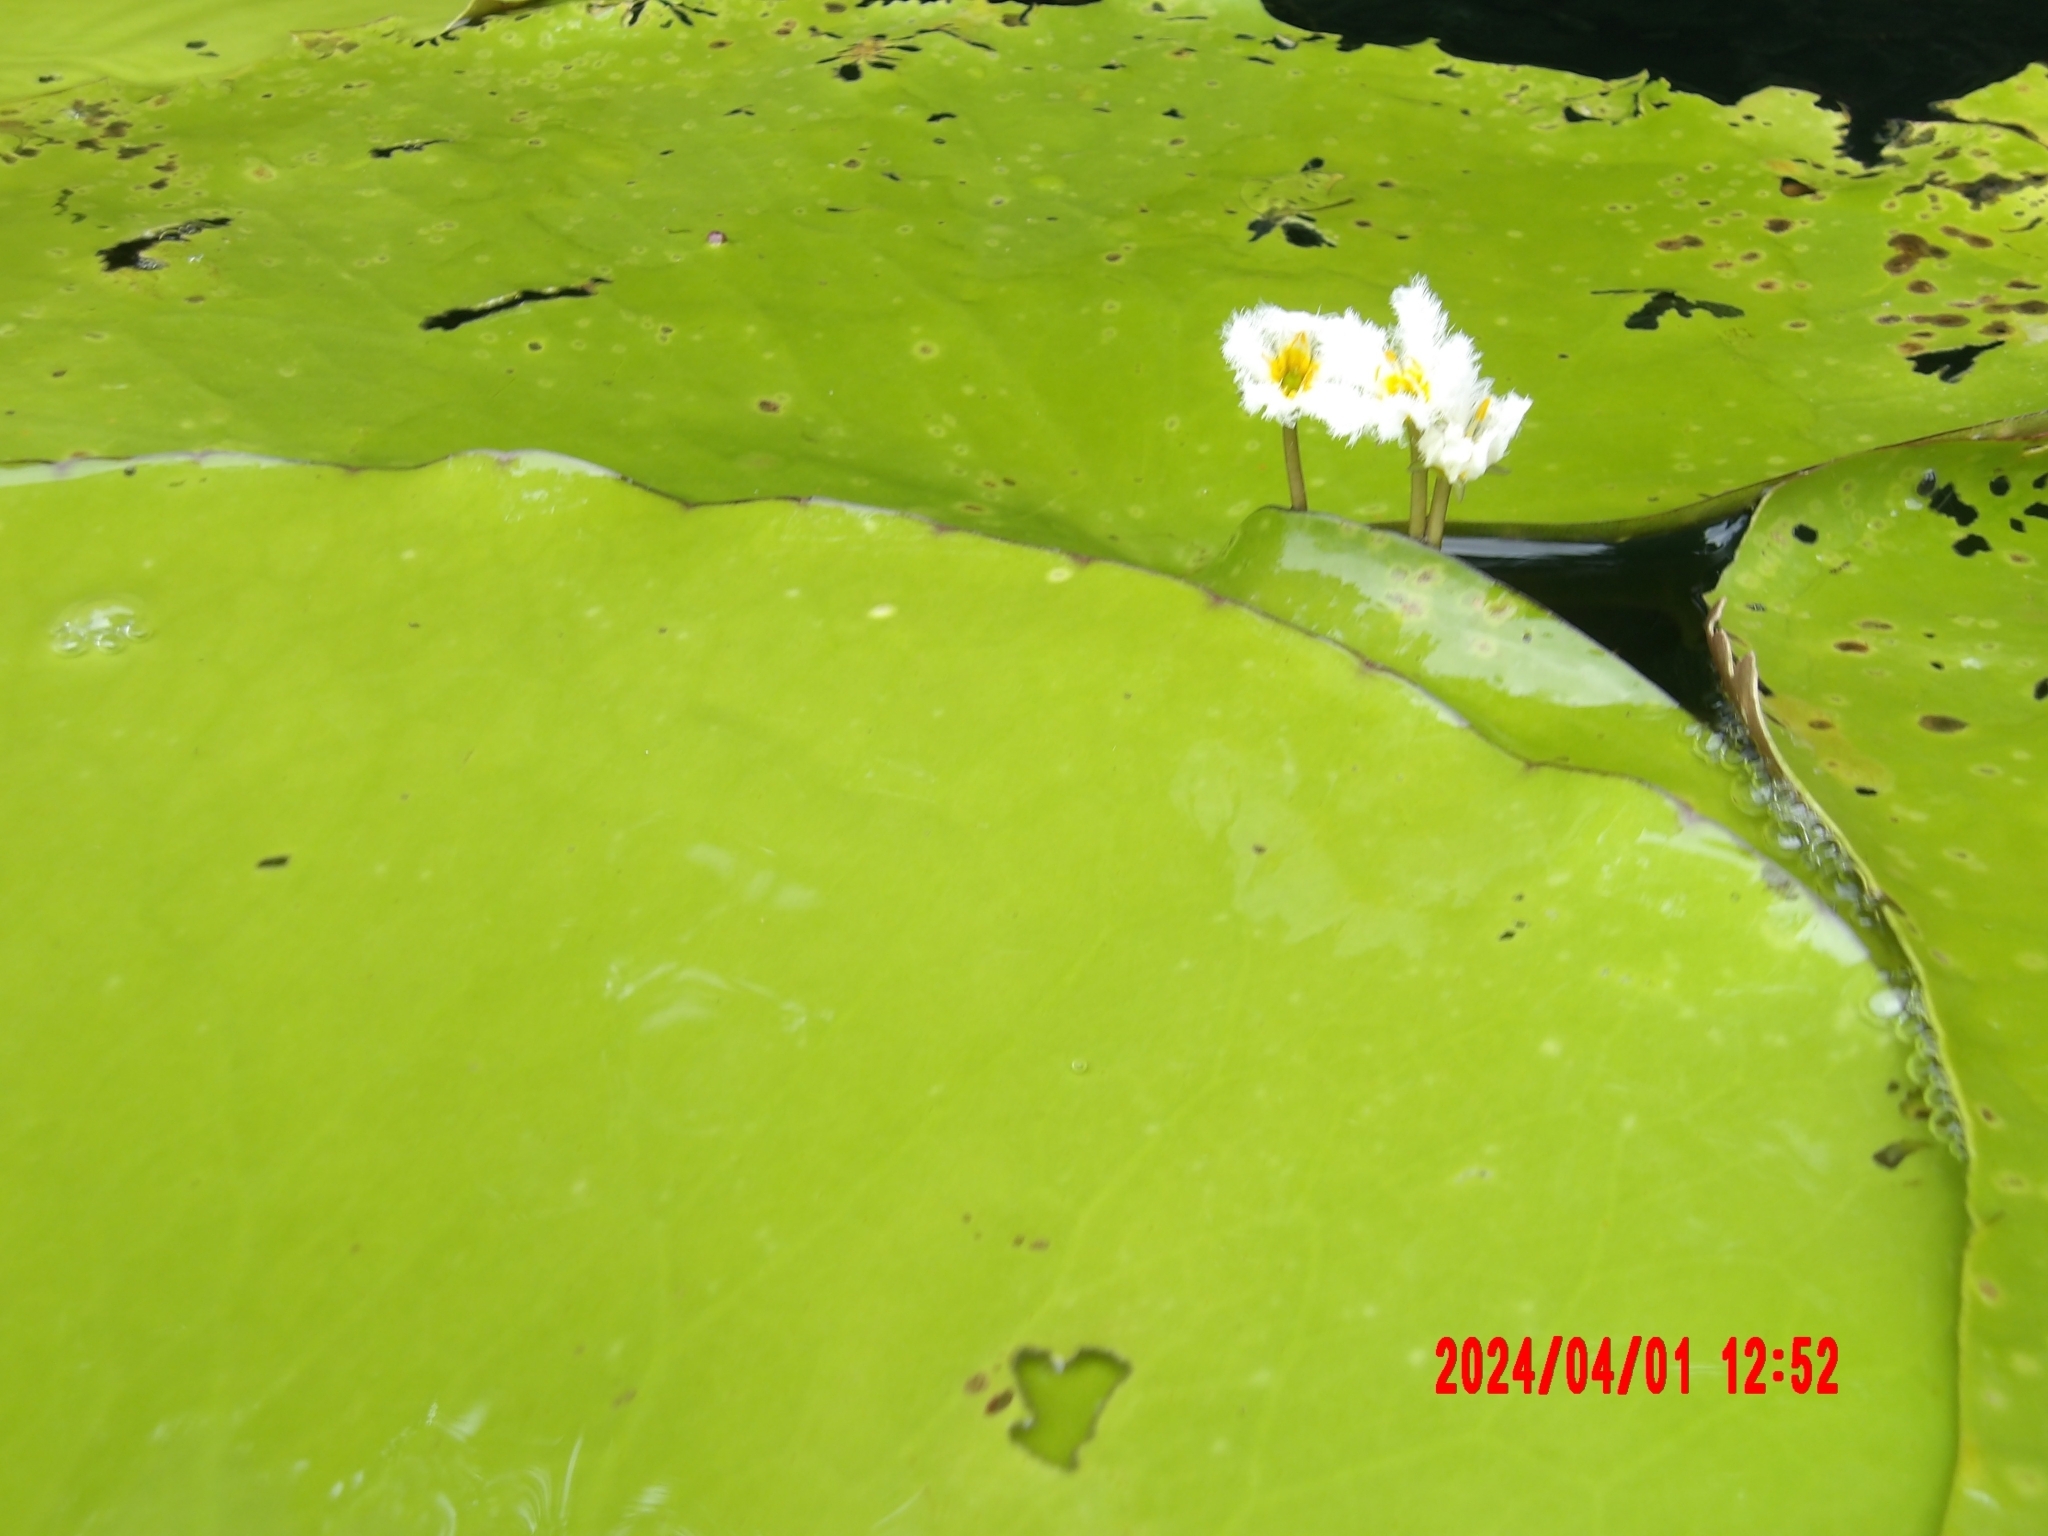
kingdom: Plantae
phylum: Tracheophyta
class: Magnoliopsida
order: Asterales
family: Menyanthaceae
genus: Nymphoides
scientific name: Nymphoides indica
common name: Water-snowflake
